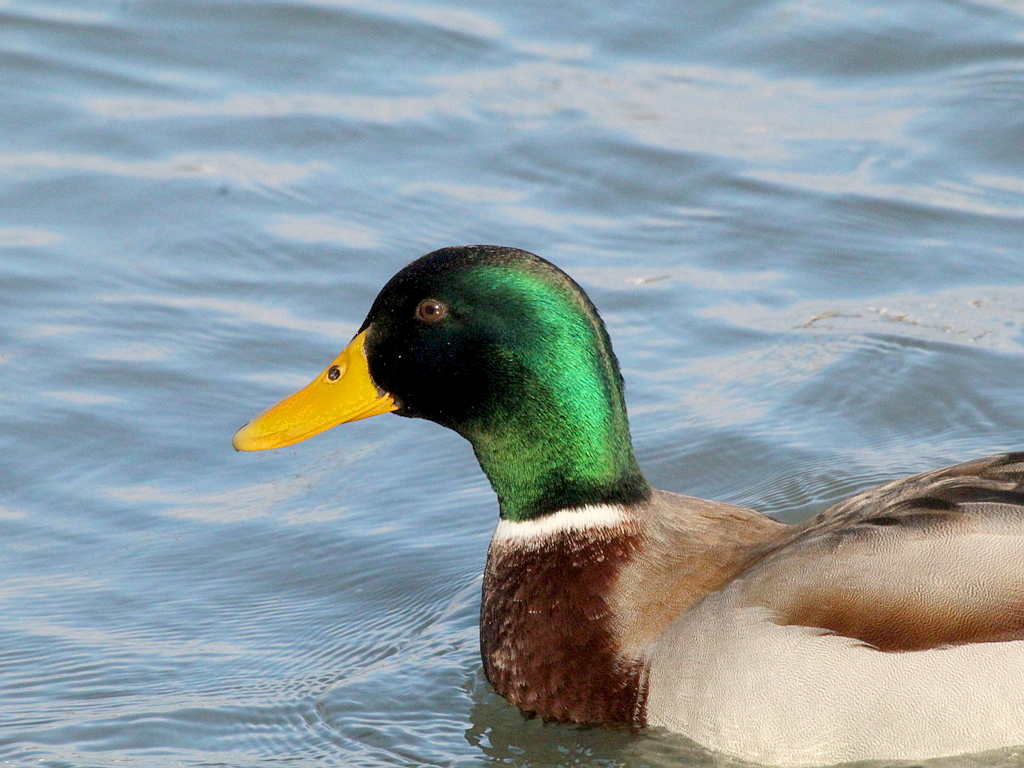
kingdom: Animalia
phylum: Chordata
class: Aves
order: Anseriformes
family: Anatidae
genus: Anas
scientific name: Anas platyrhynchos
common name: Mallard
